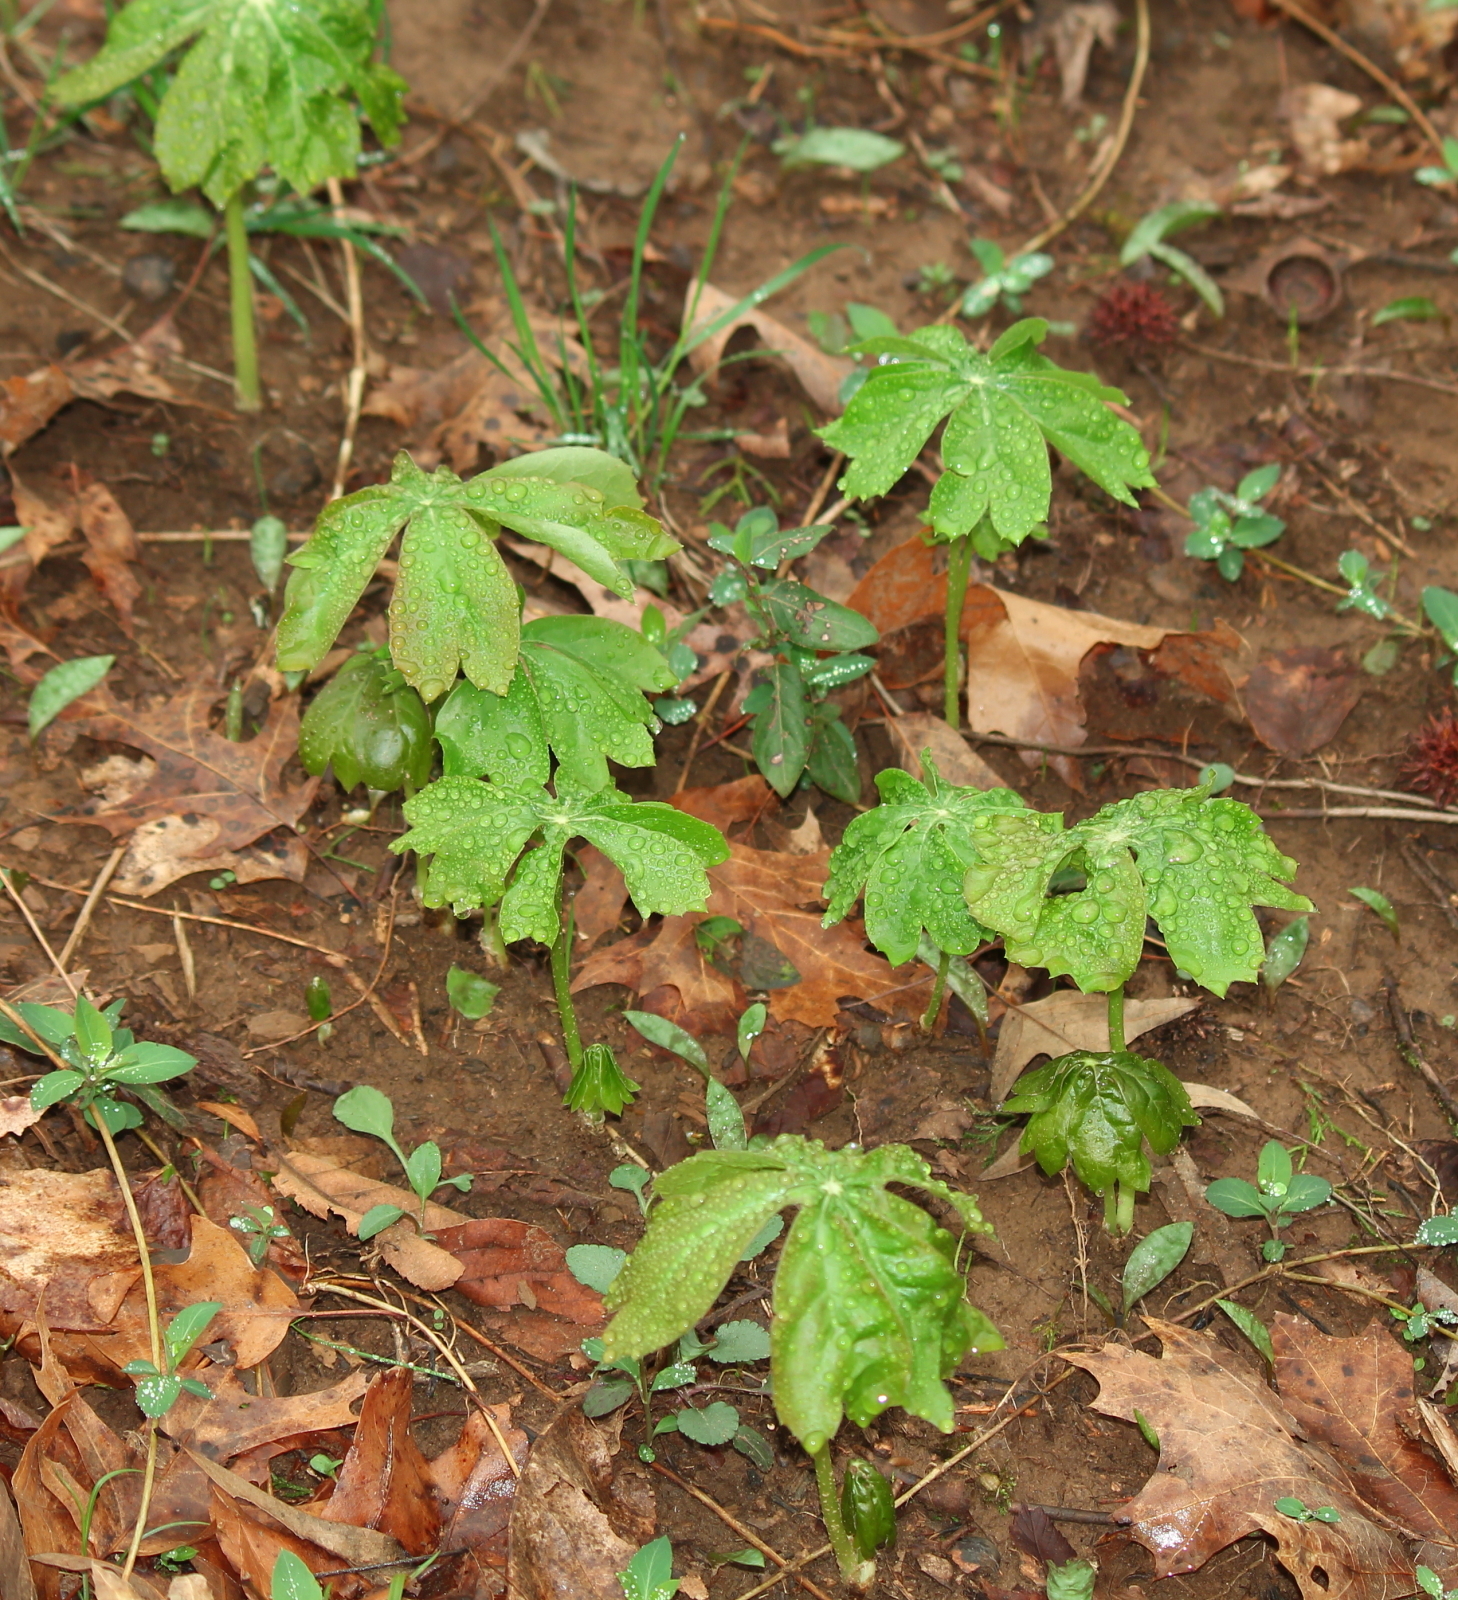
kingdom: Plantae
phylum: Tracheophyta
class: Magnoliopsida
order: Ranunculales
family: Berberidaceae
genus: Podophyllum
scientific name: Podophyllum peltatum
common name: Wild mandrake
